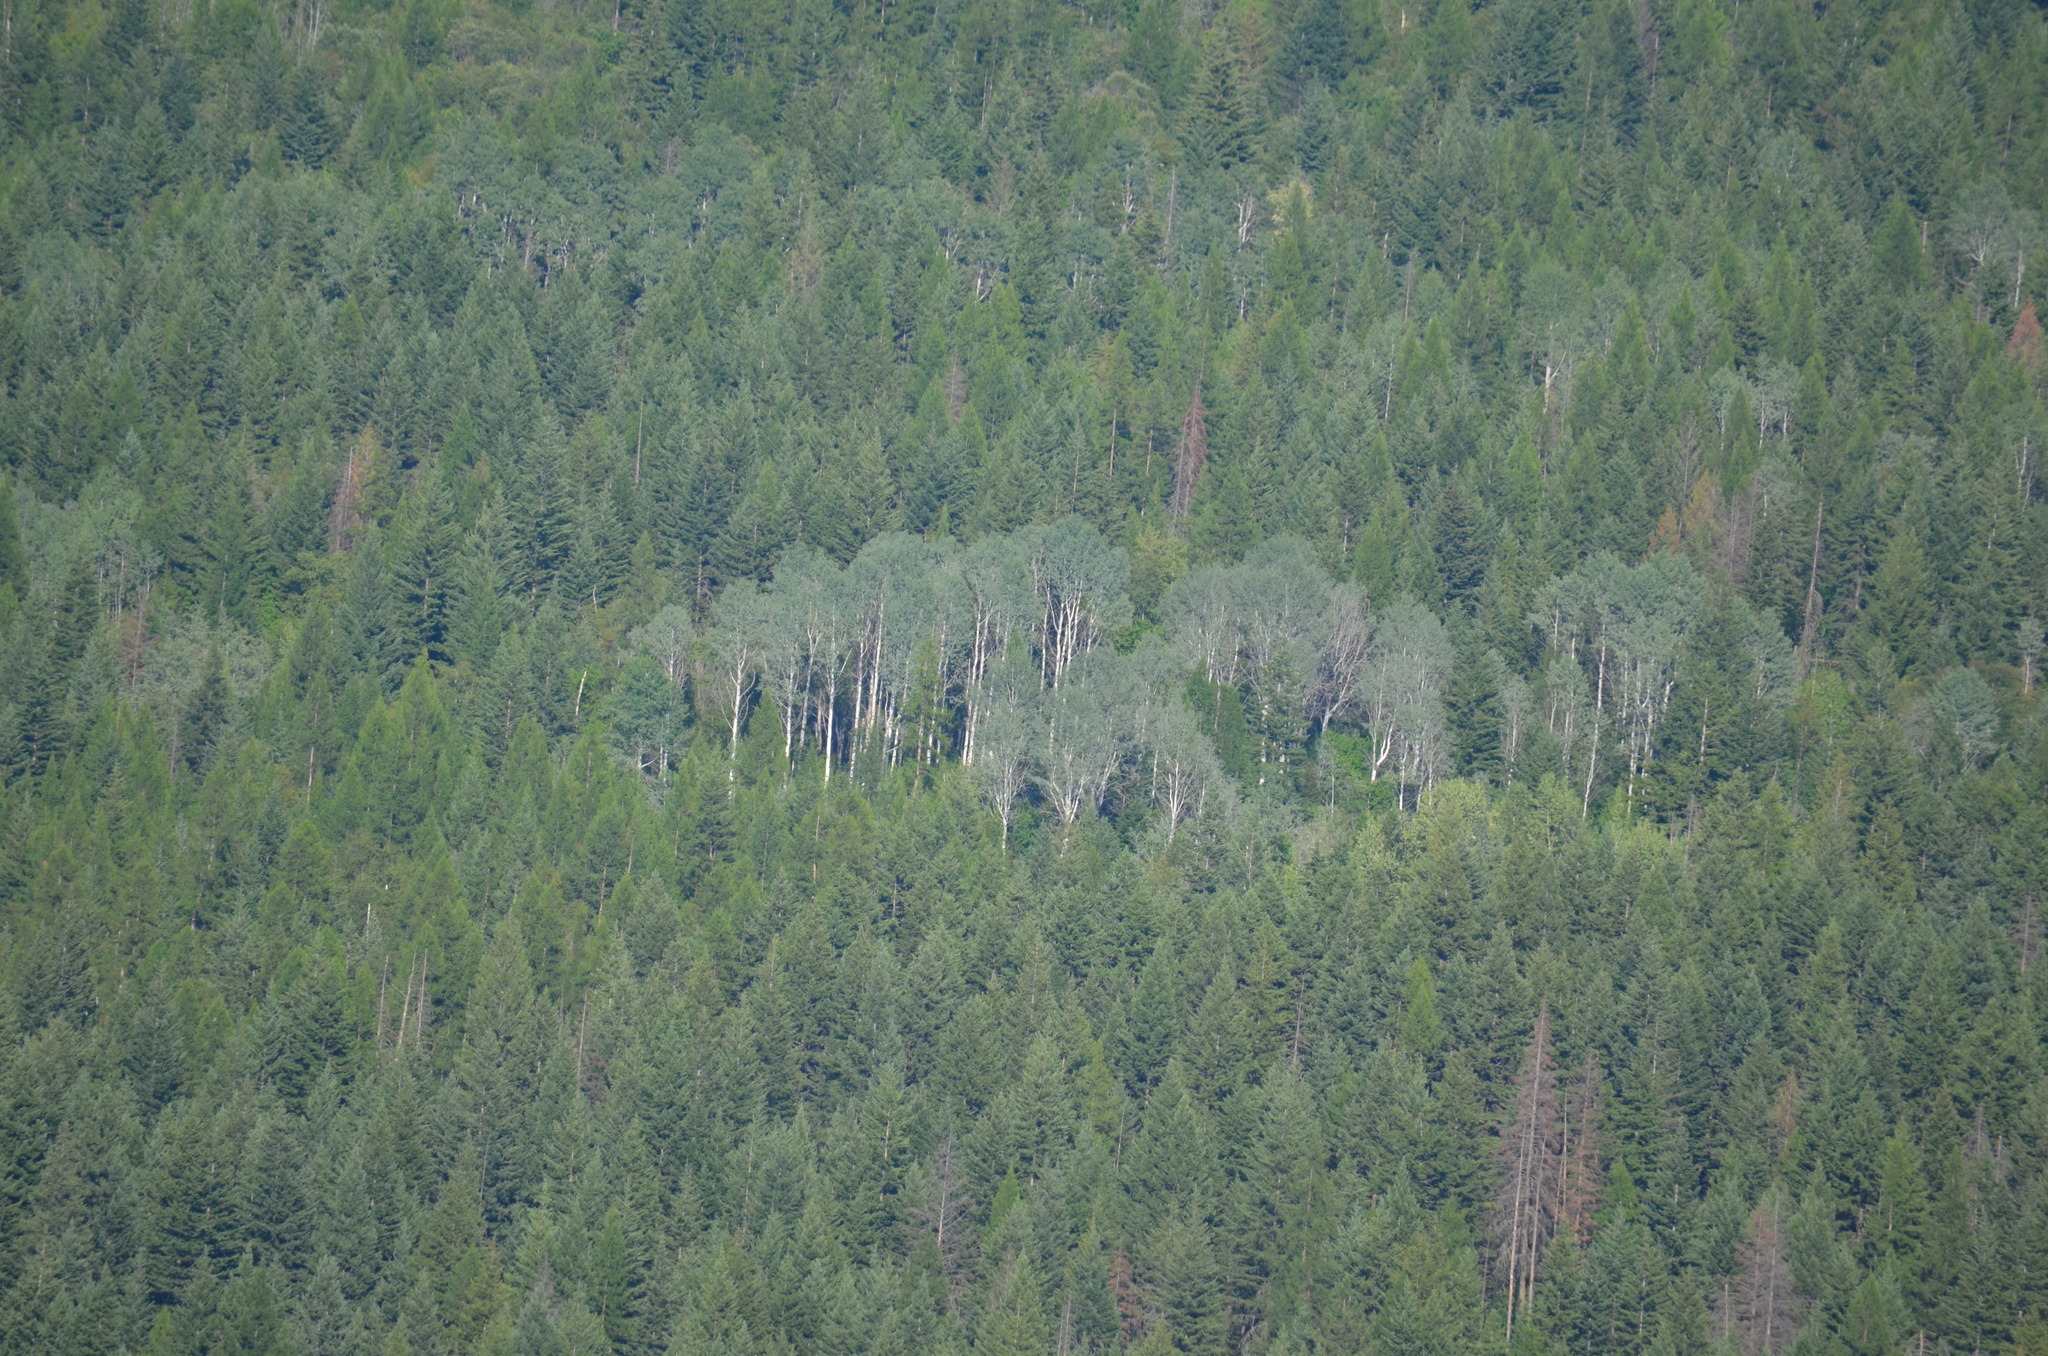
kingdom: Plantae
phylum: Tracheophyta
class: Magnoliopsida
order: Malpighiales
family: Salicaceae
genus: Populus
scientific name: Populus tremuloides
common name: Quaking aspen
